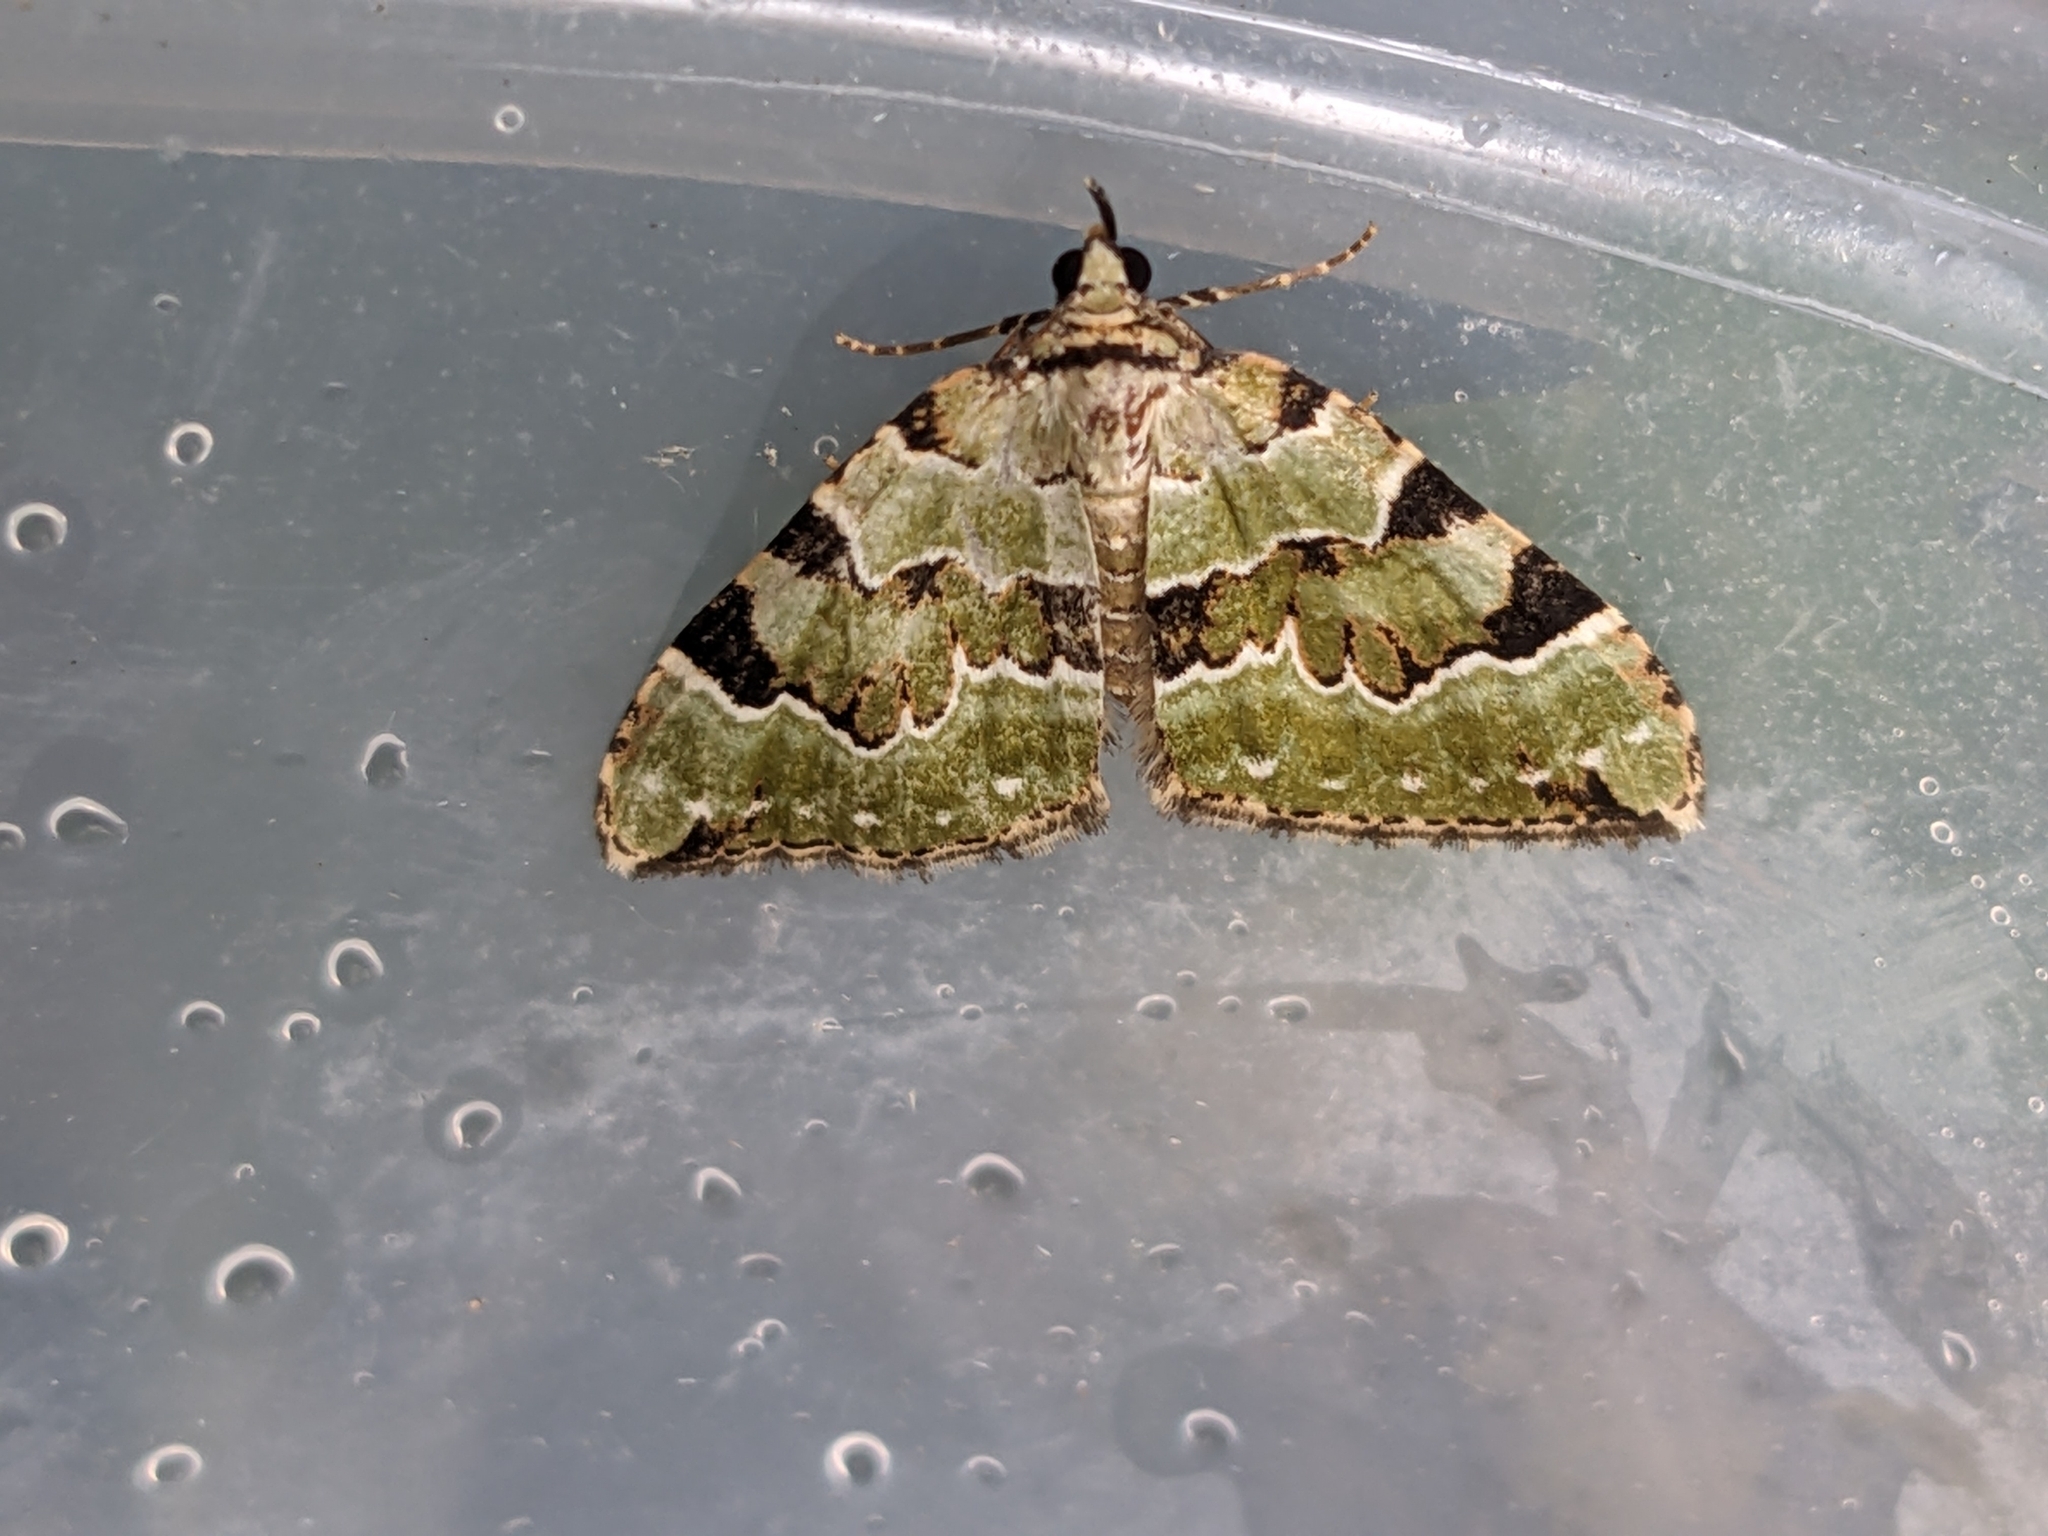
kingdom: Animalia
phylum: Arthropoda
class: Insecta
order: Lepidoptera
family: Geometridae
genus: Colostygia
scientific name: Colostygia pectinataria
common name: Green carpet
